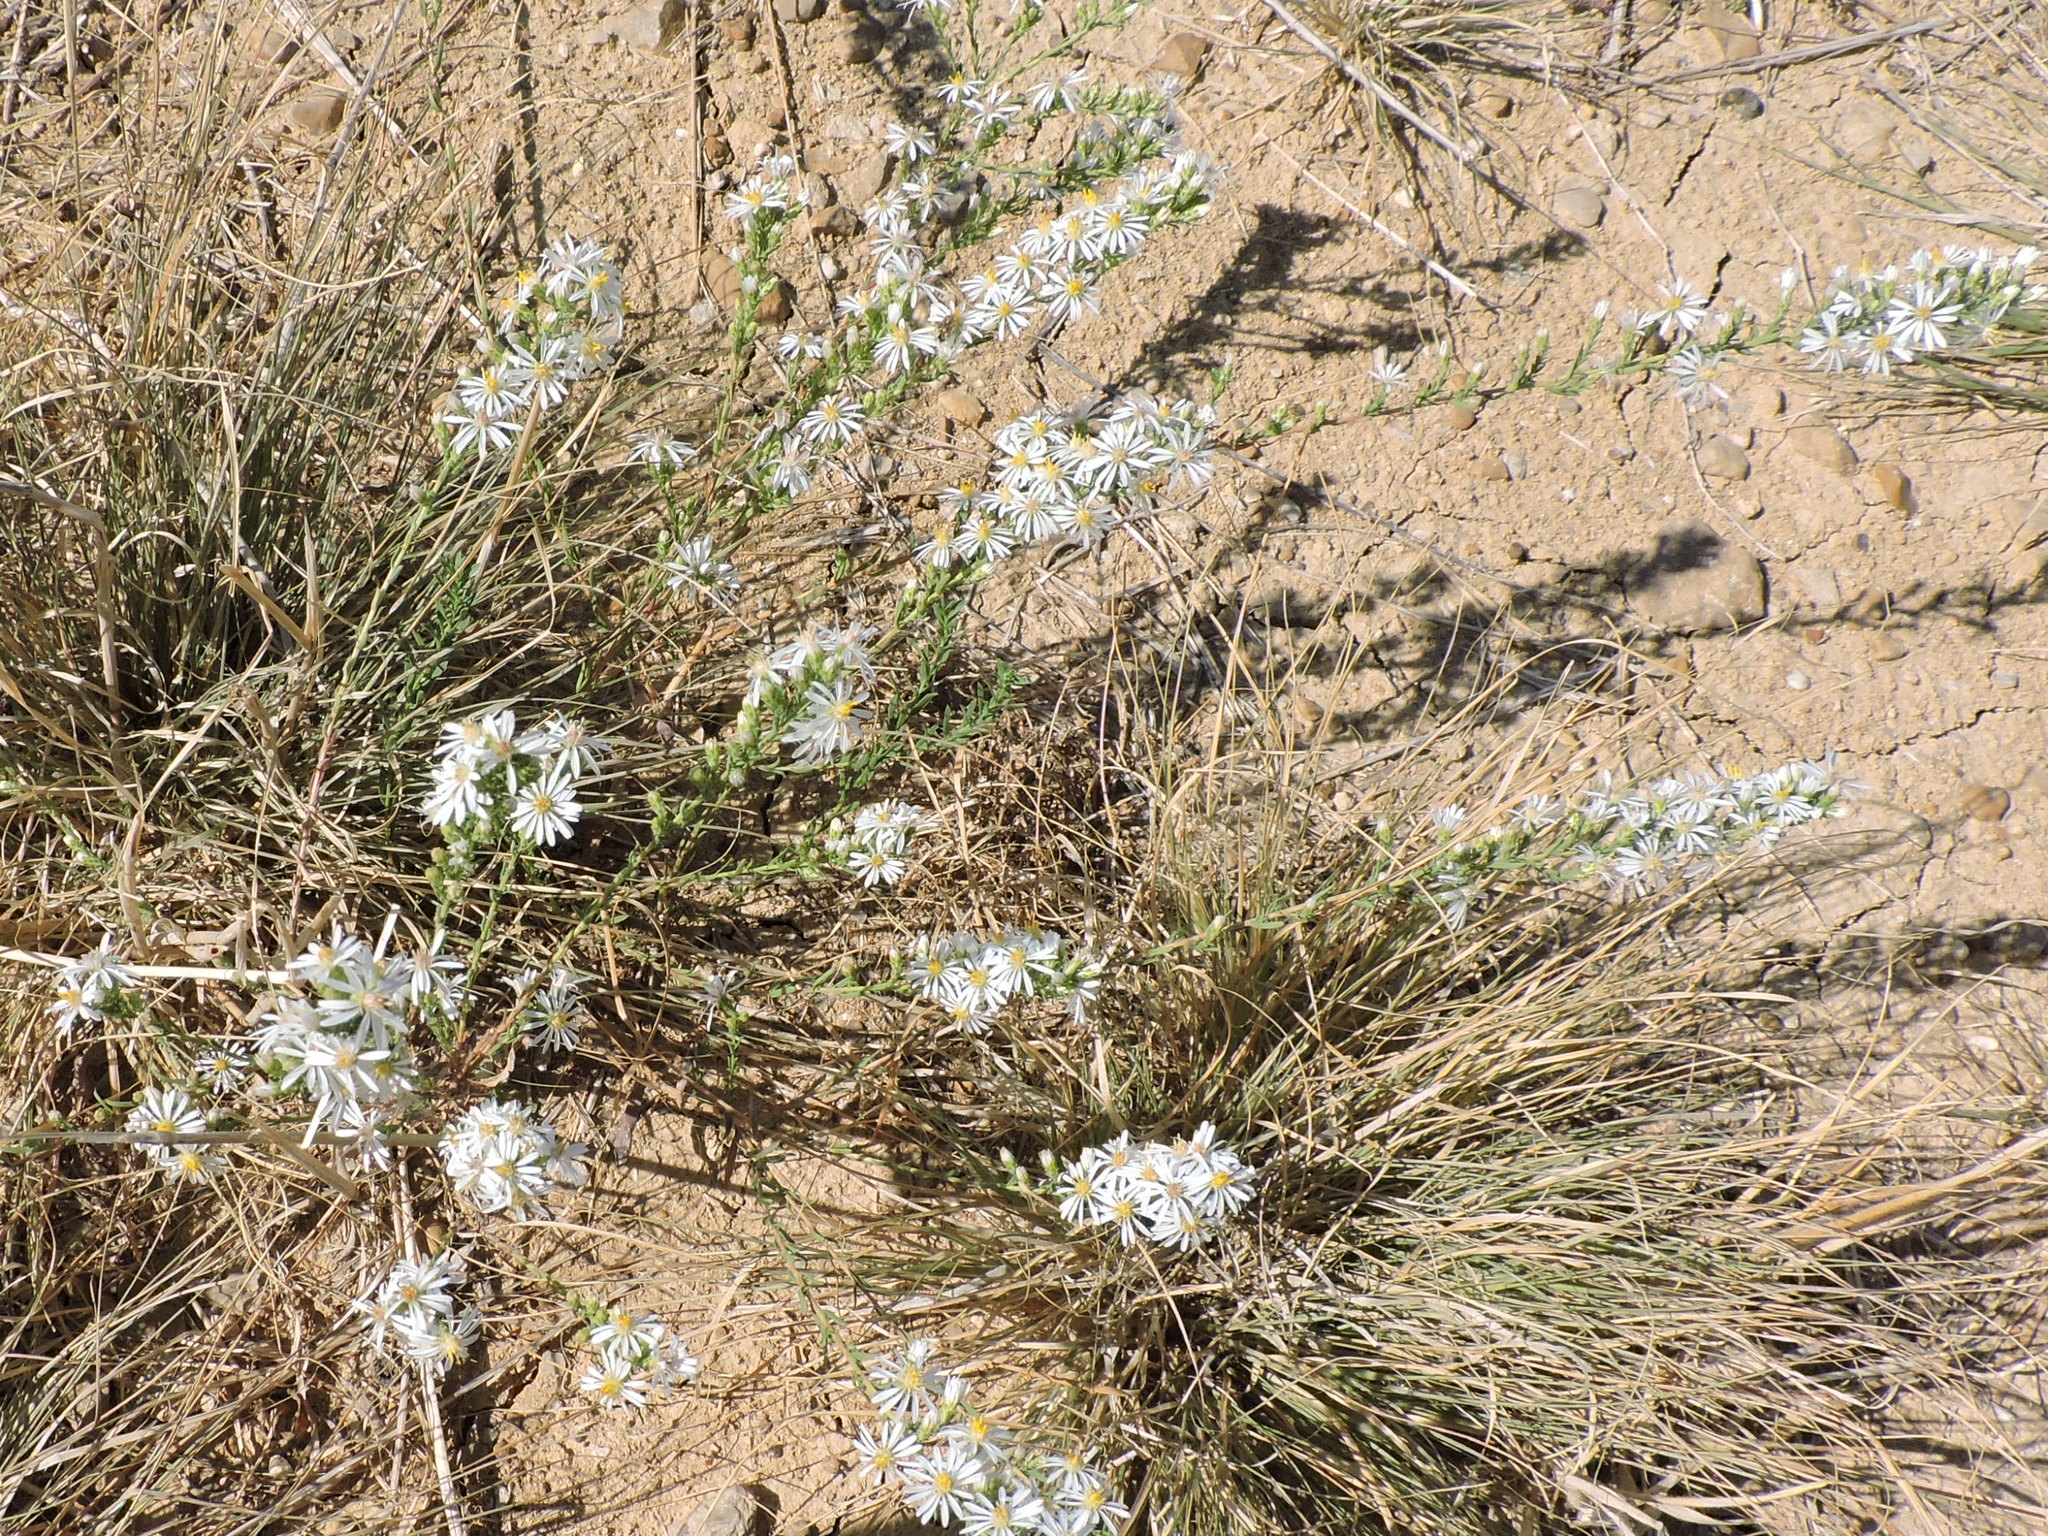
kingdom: Plantae
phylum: Tracheophyta
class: Magnoliopsida
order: Asterales
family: Asteraceae
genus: Symphyotrichum
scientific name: Symphyotrichum ericoides
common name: Heath aster
